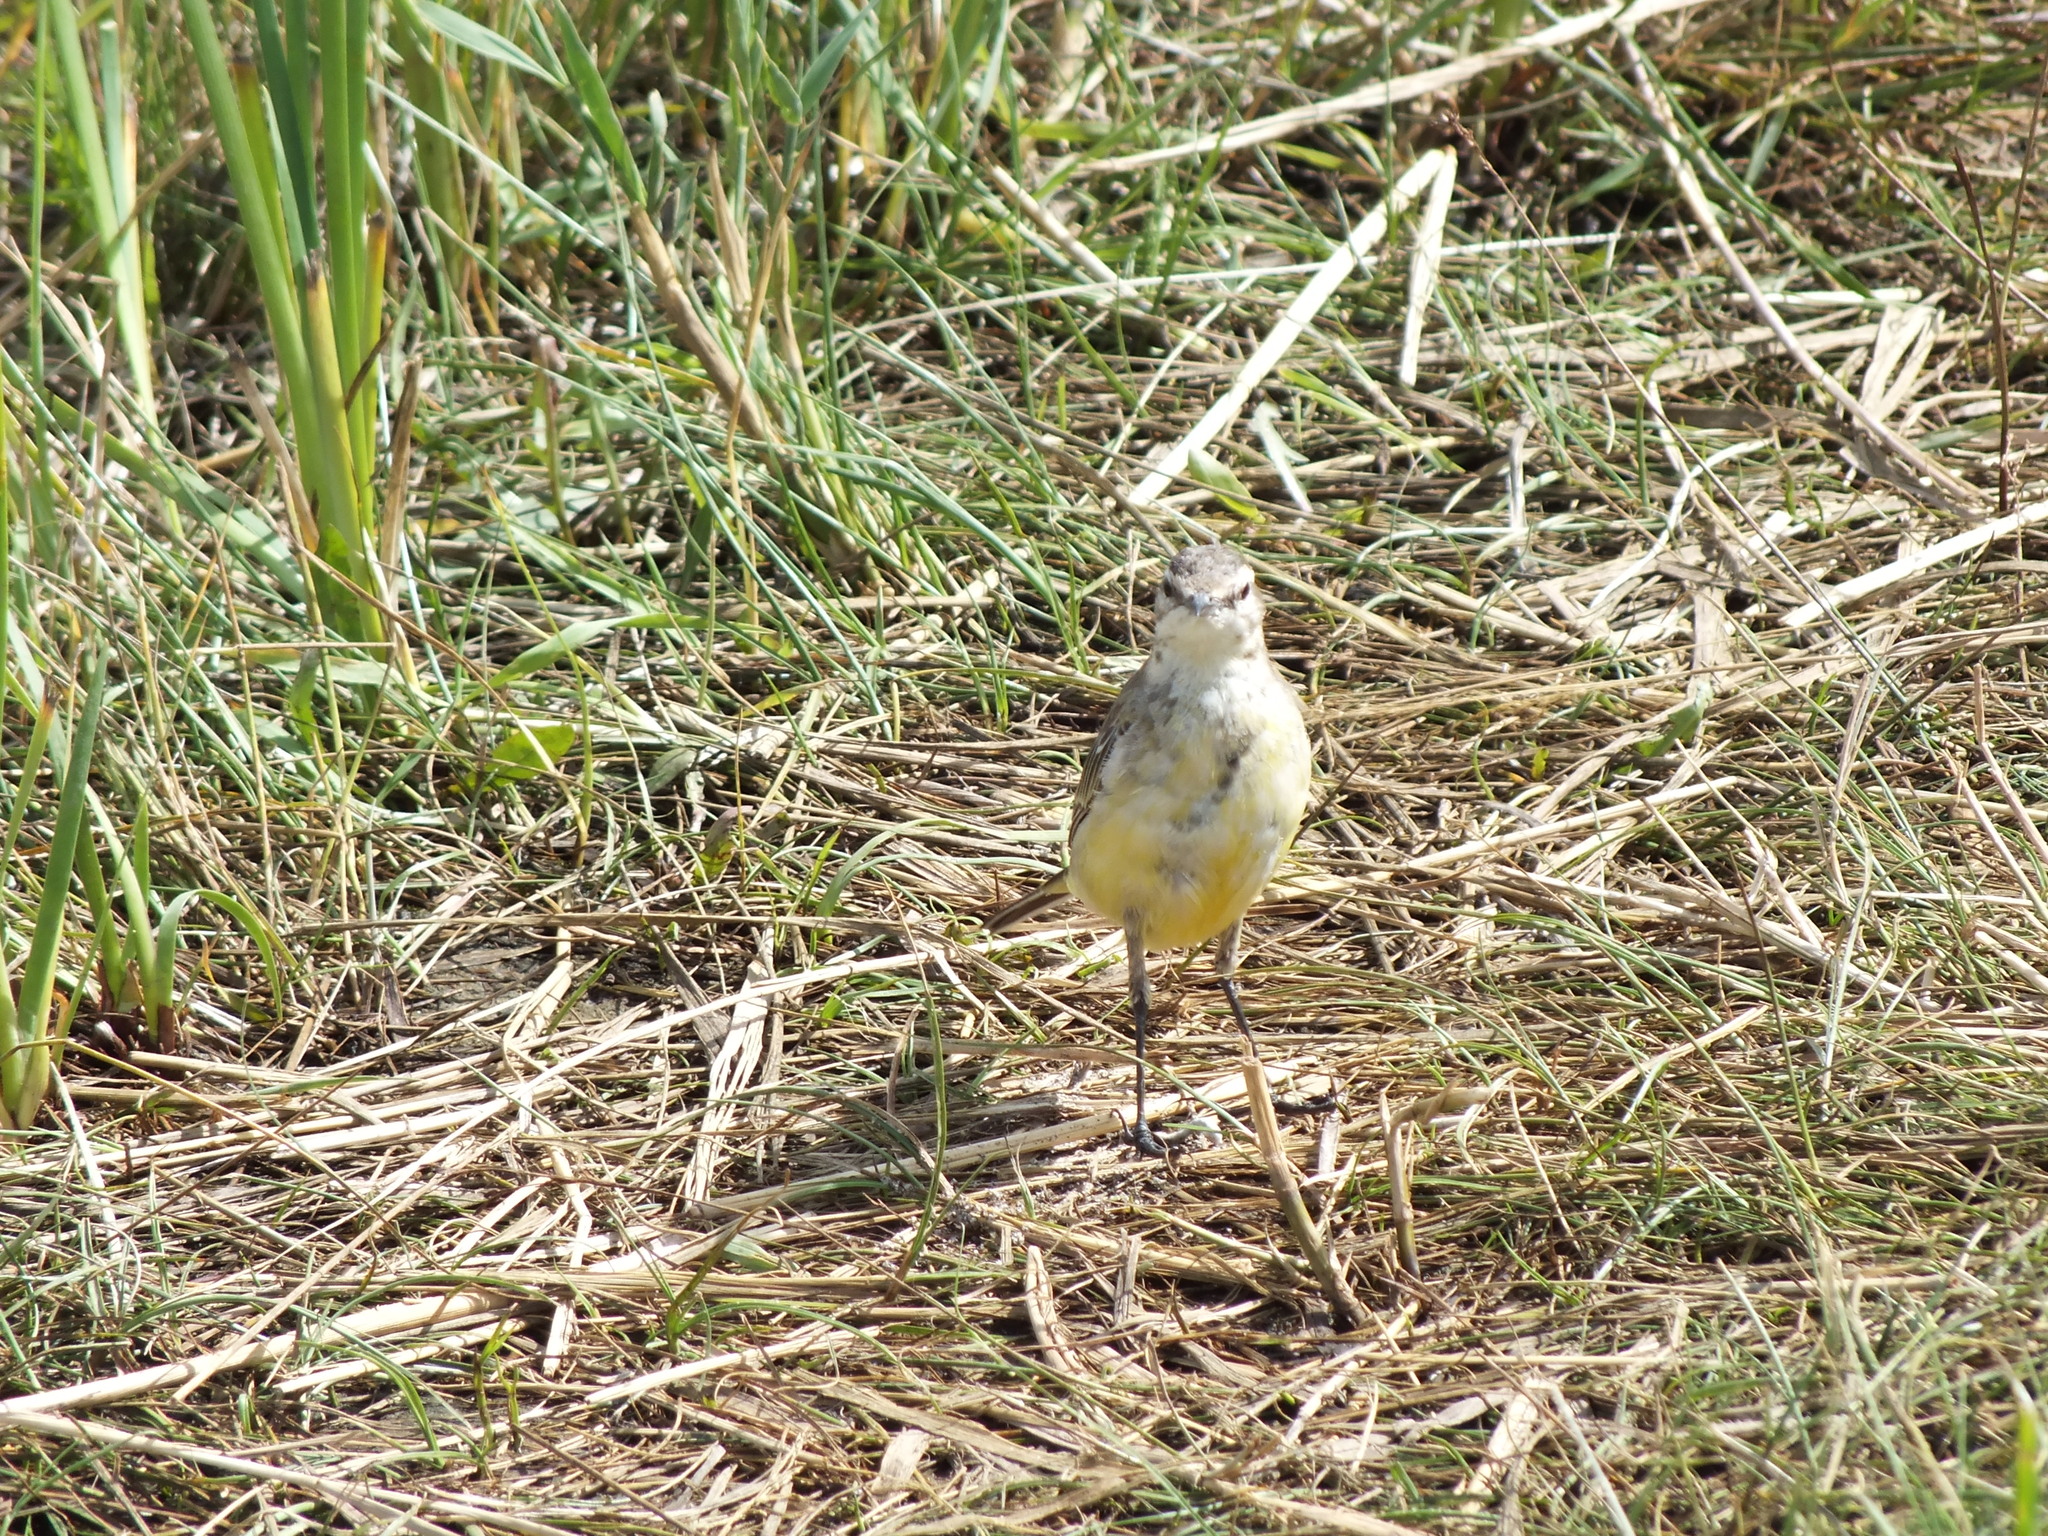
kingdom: Animalia
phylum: Chordata
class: Aves
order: Passeriformes
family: Motacillidae
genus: Motacilla
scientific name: Motacilla flava
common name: Western yellow wagtail
